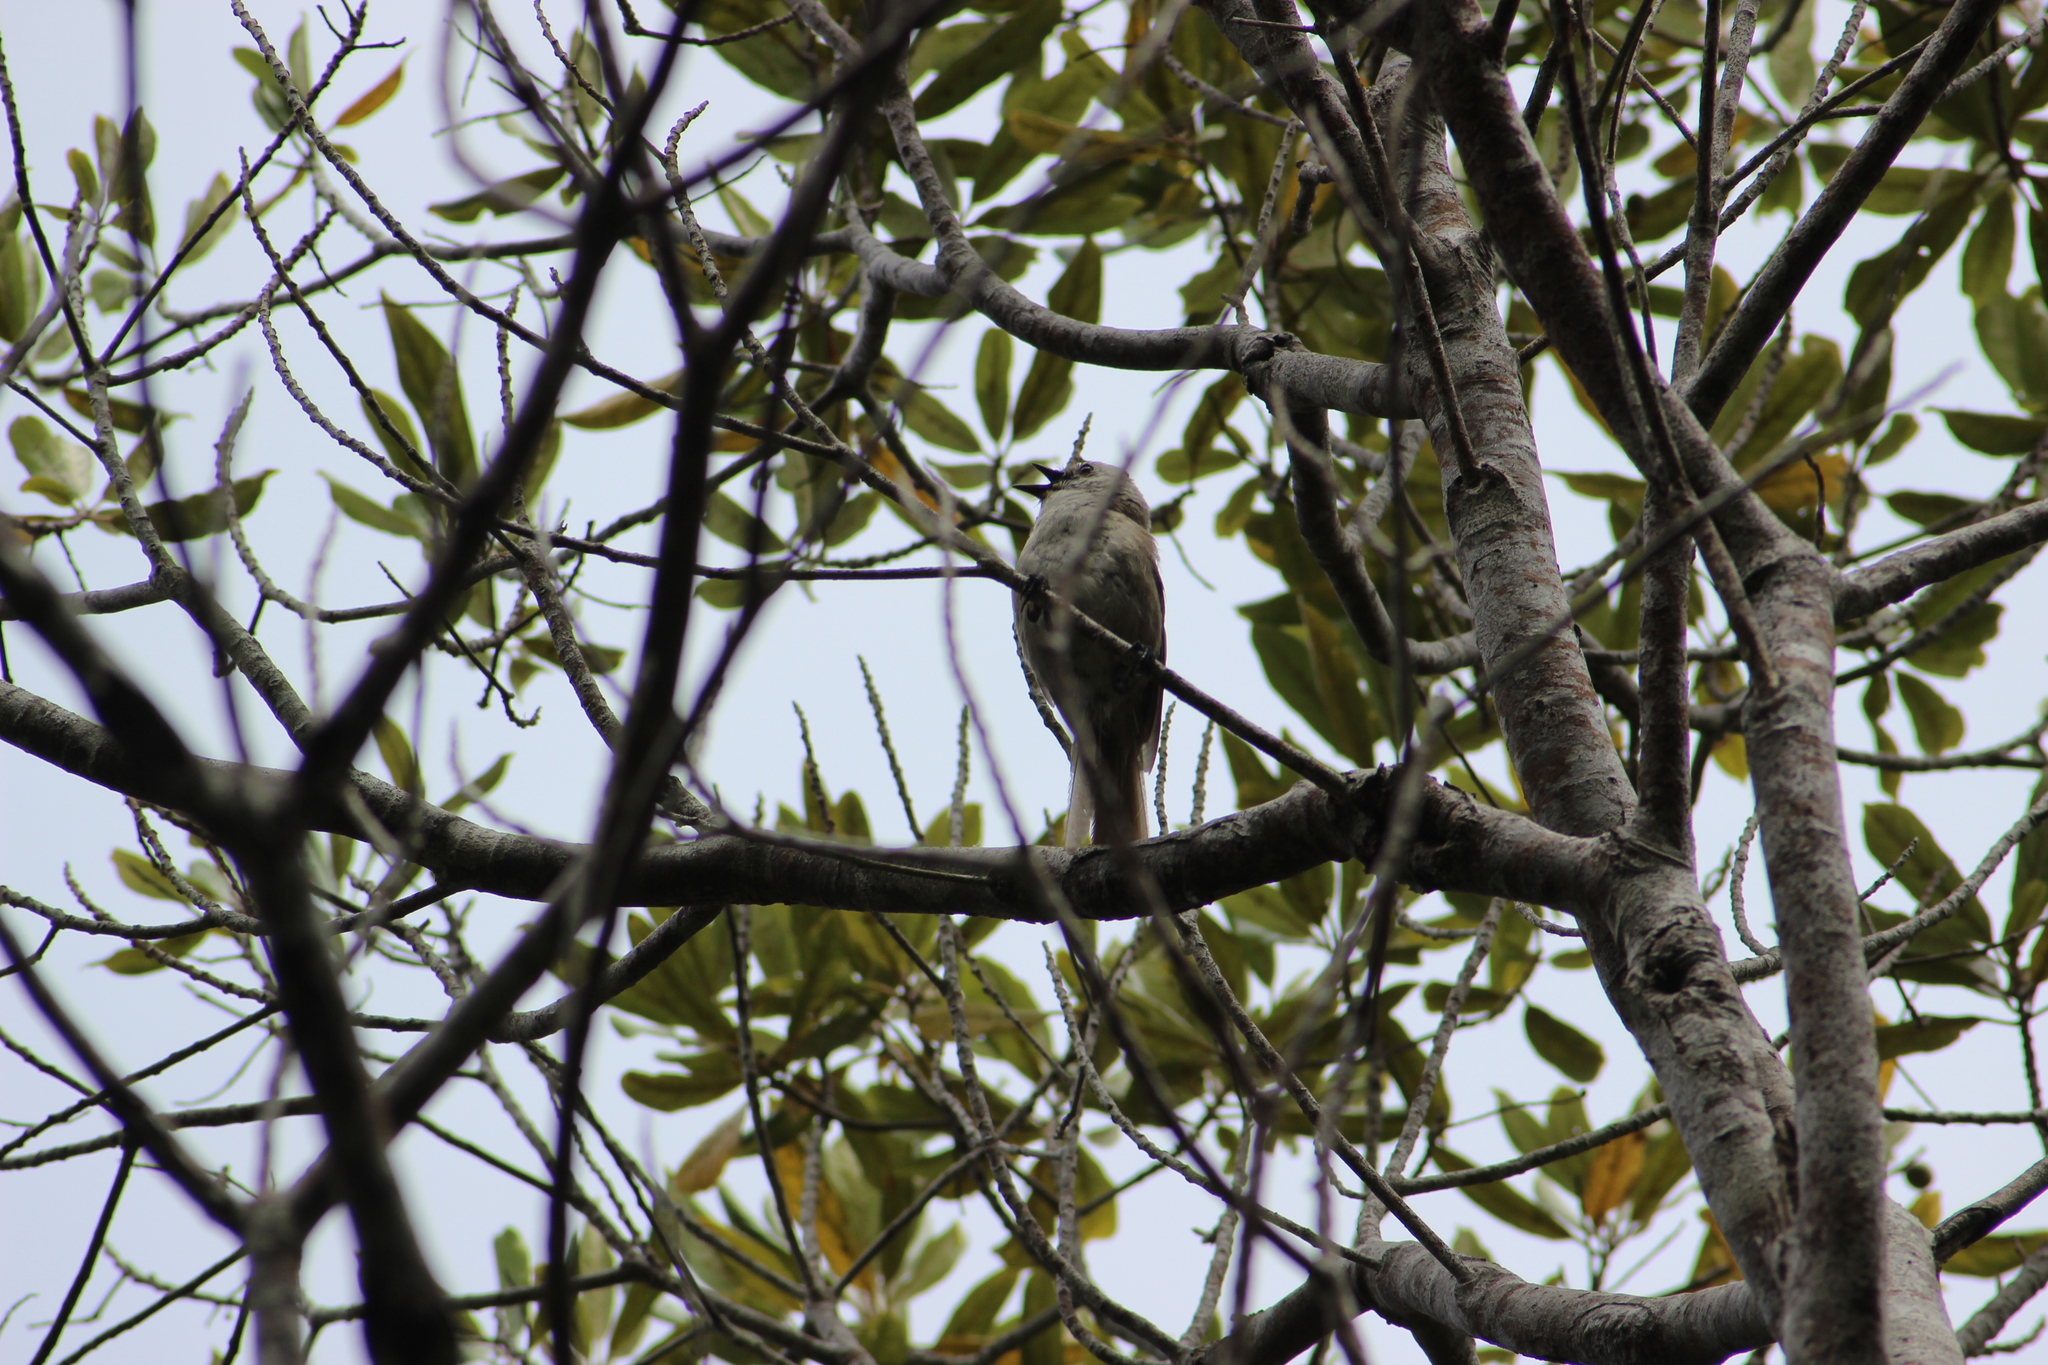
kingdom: Animalia
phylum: Chordata
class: Aves
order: Passeriformes
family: Acanthizidae
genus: Mohoua
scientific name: Mohoua albicilla
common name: Whitehead
